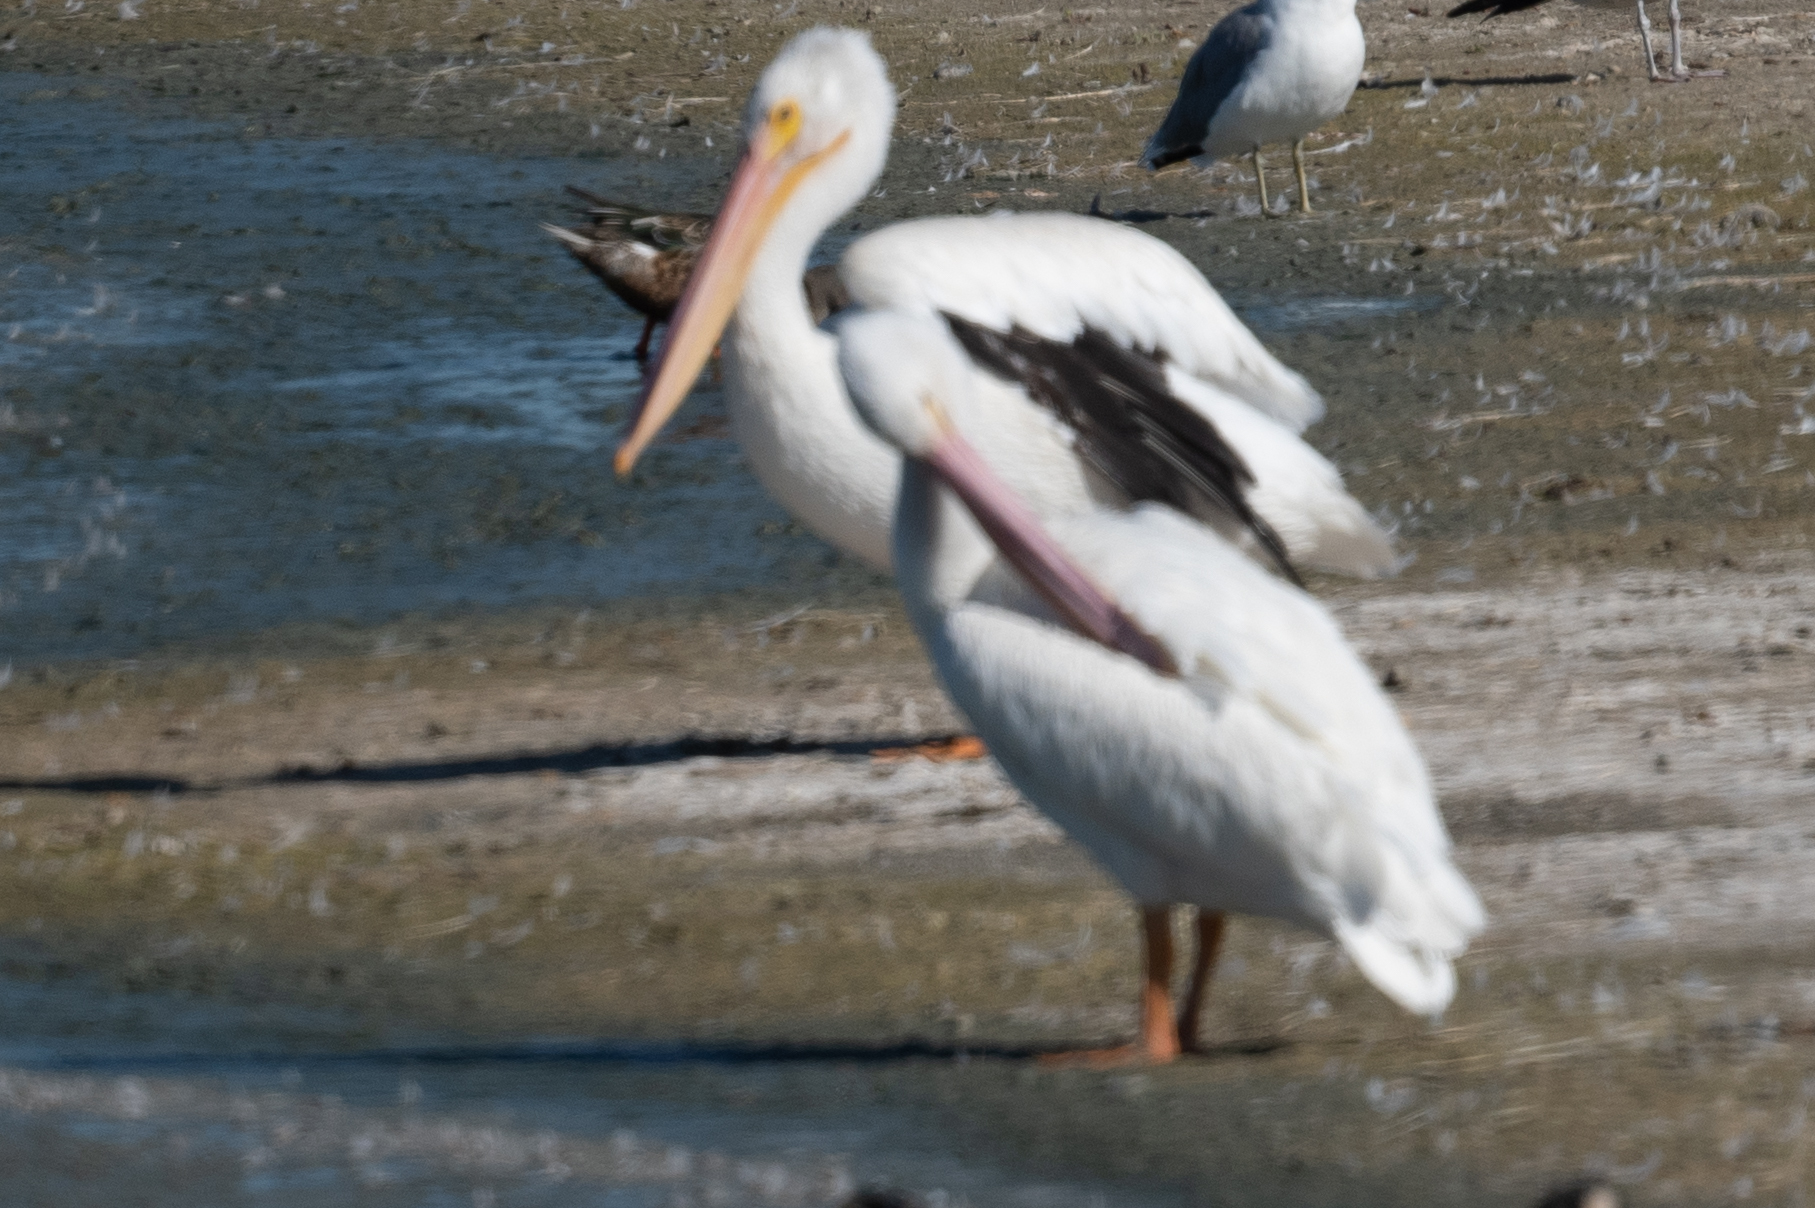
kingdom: Animalia
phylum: Chordata
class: Aves
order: Pelecaniformes
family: Pelecanidae
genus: Pelecanus
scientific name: Pelecanus erythrorhynchos
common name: American white pelican
